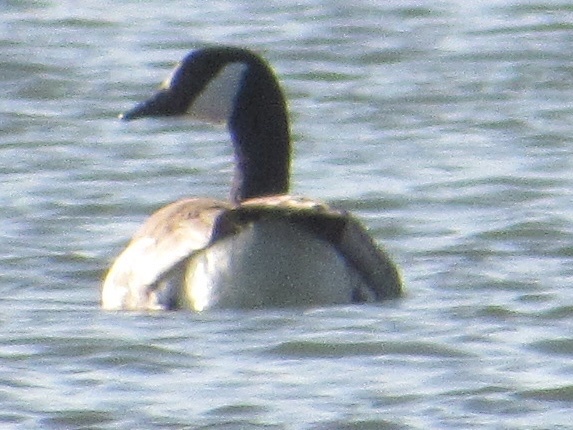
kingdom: Animalia
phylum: Chordata
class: Aves
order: Anseriformes
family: Anatidae
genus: Branta
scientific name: Branta canadensis
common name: Canada goose
